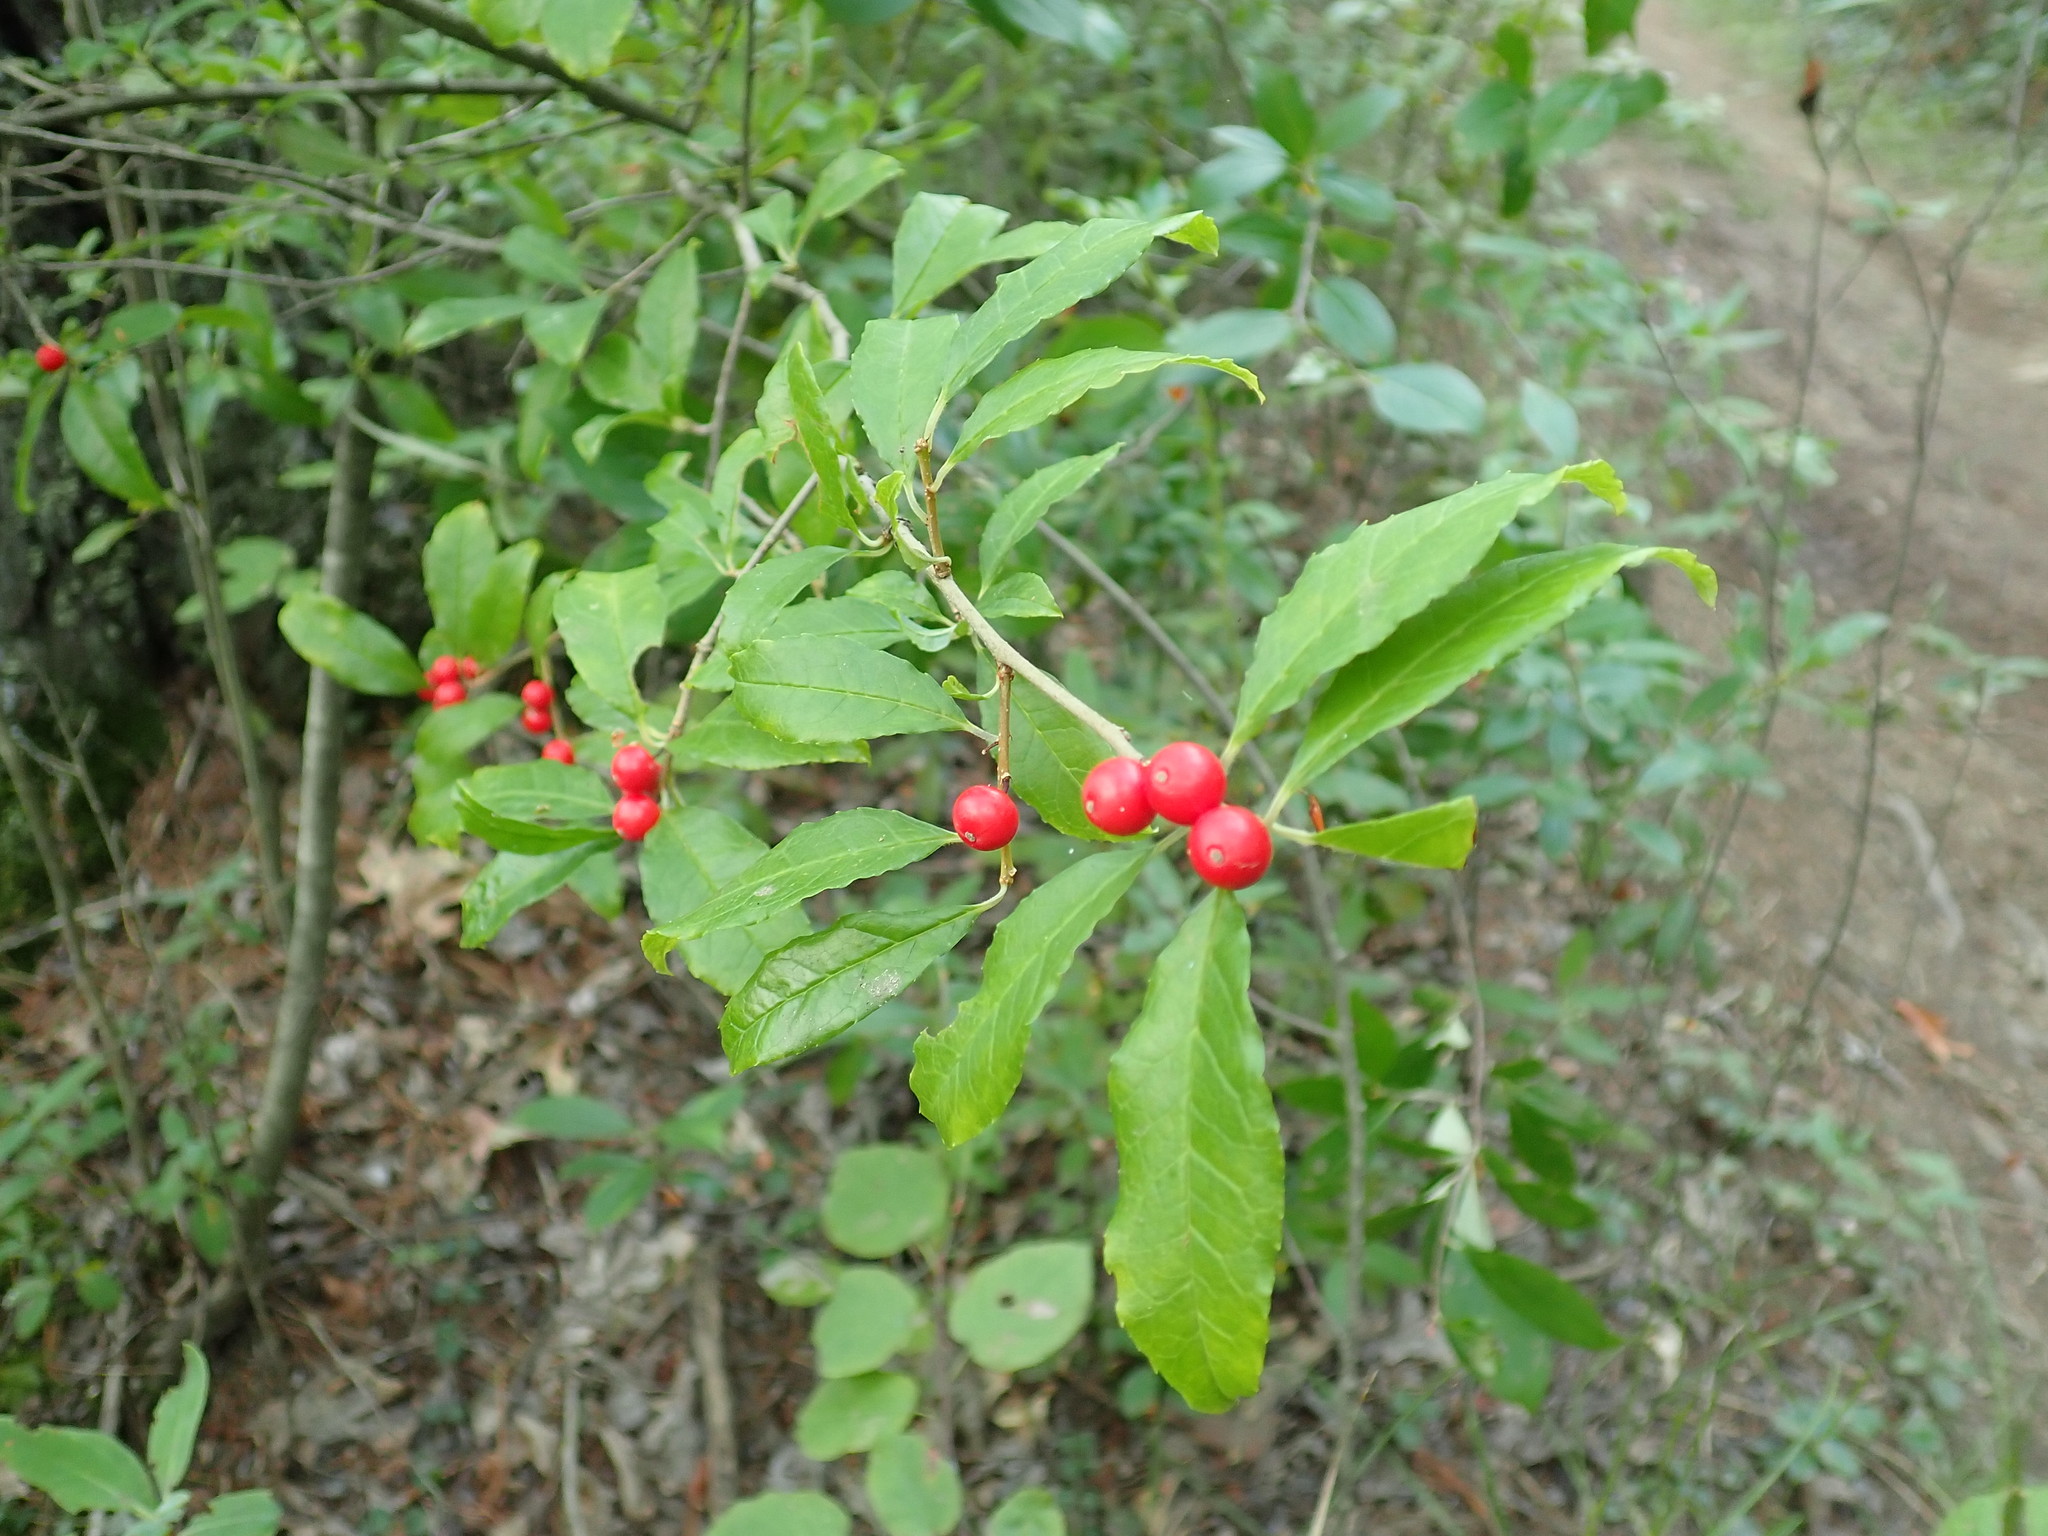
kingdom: Plantae
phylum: Tracheophyta
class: Magnoliopsida
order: Aquifoliales
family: Aquifoliaceae
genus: Ilex
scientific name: Ilex verticillata
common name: Virginia winterberry
